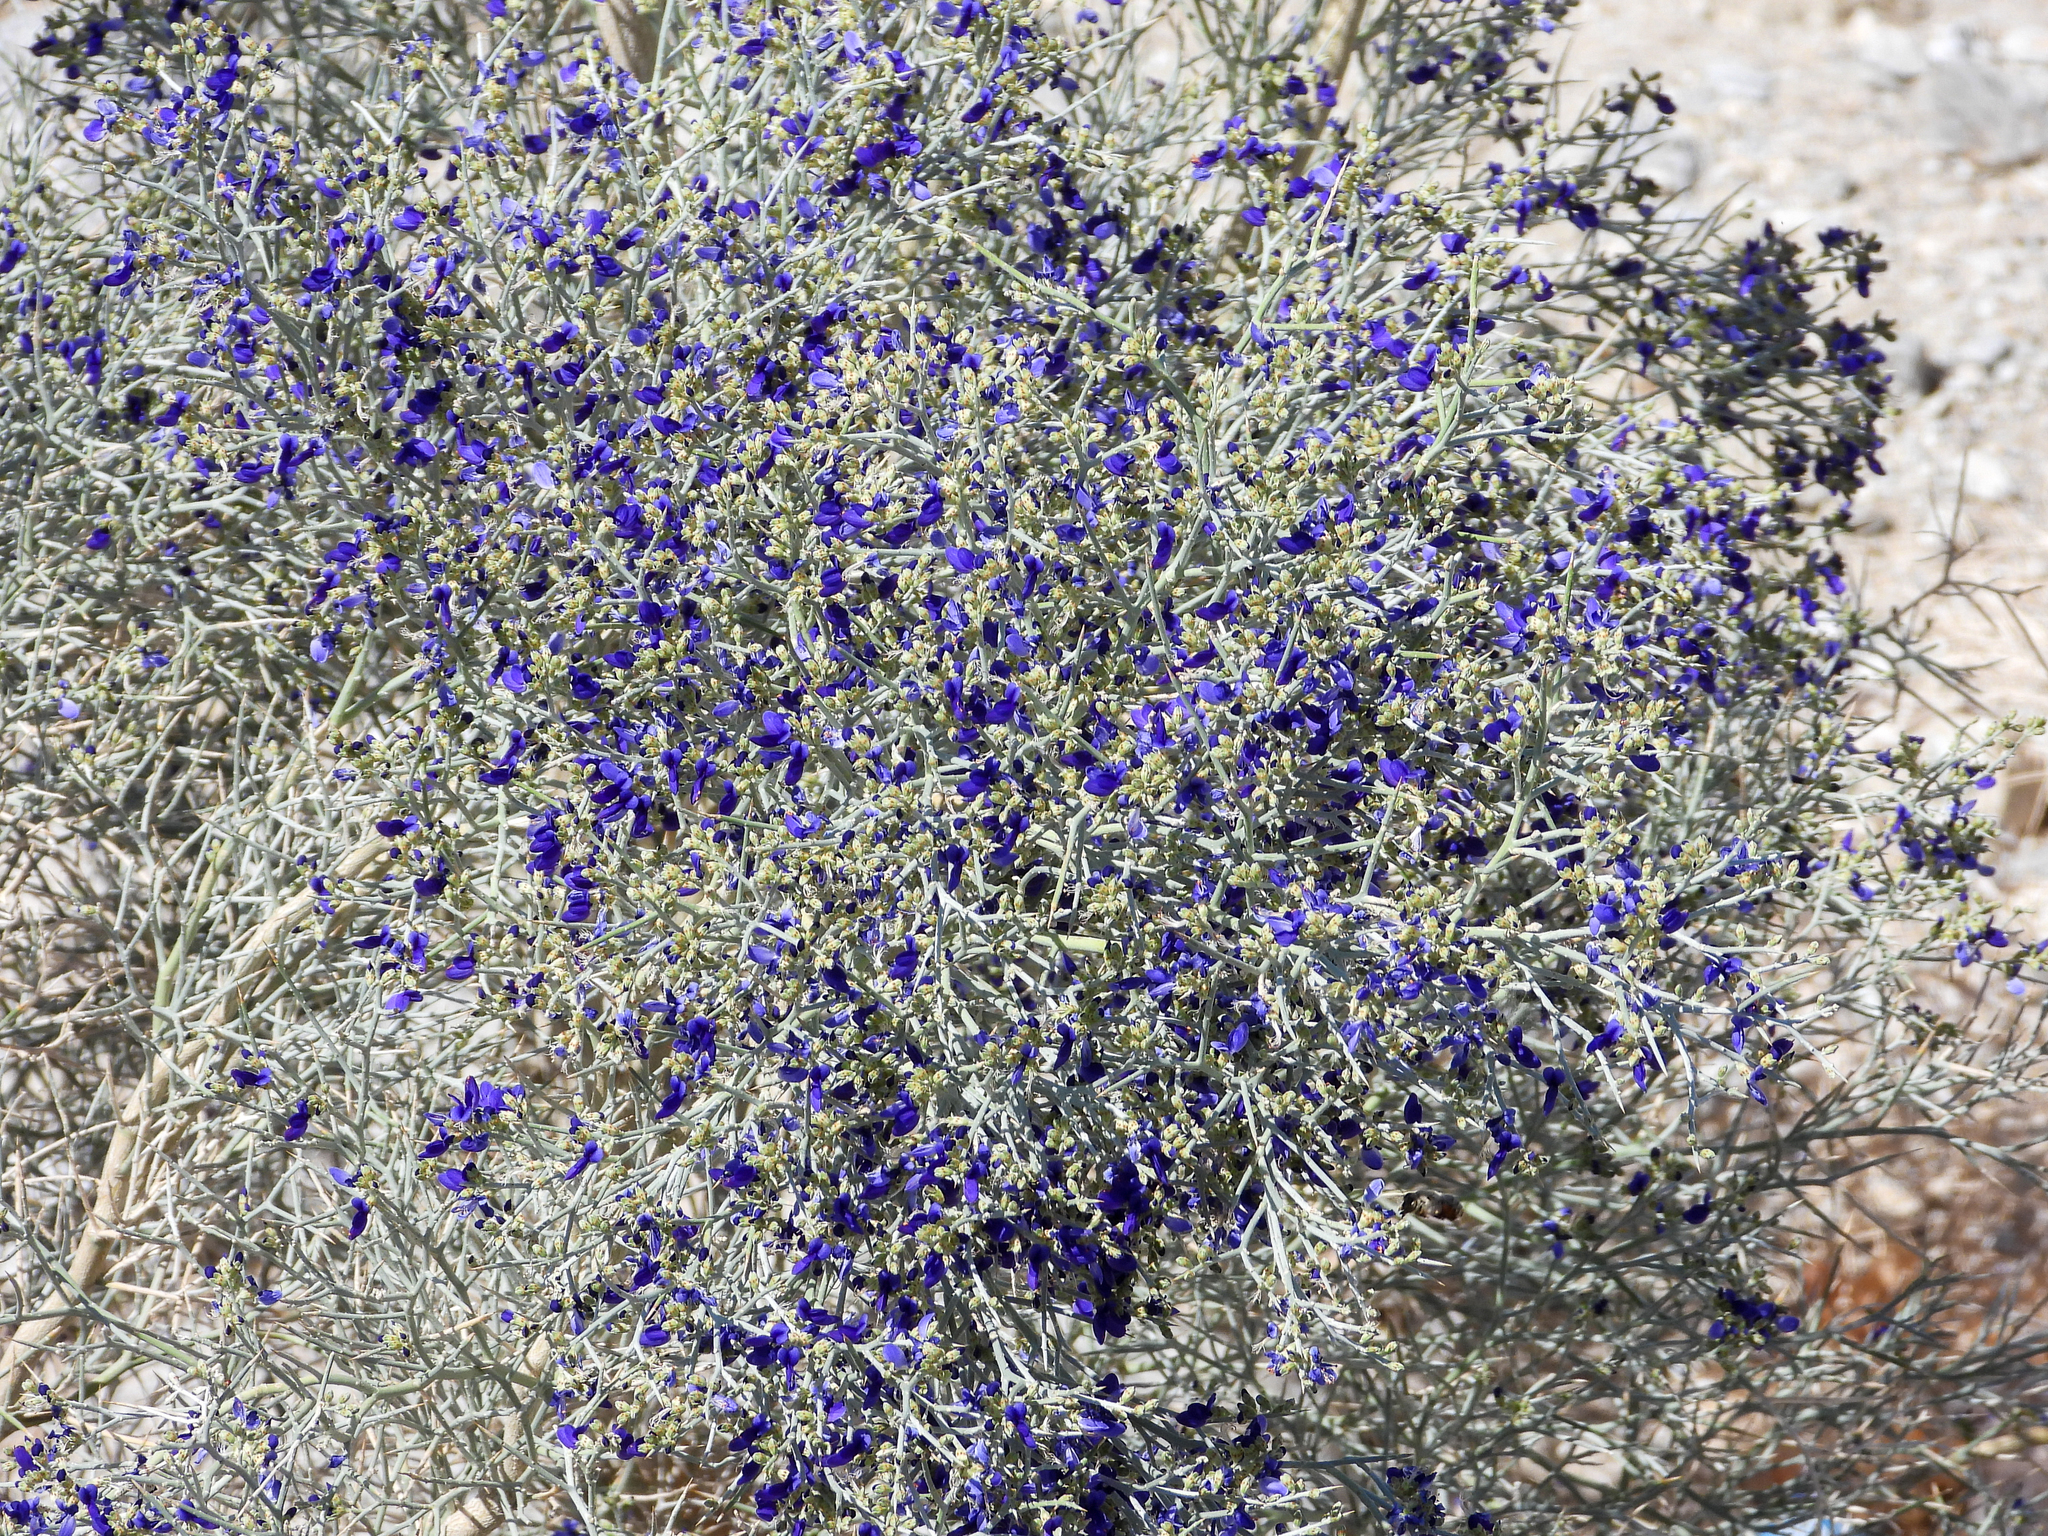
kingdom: Plantae
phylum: Tracheophyta
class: Magnoliopsida
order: Fabales
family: Fabaceae
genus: Psorothamnus
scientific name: Psorothamnus spinosus
